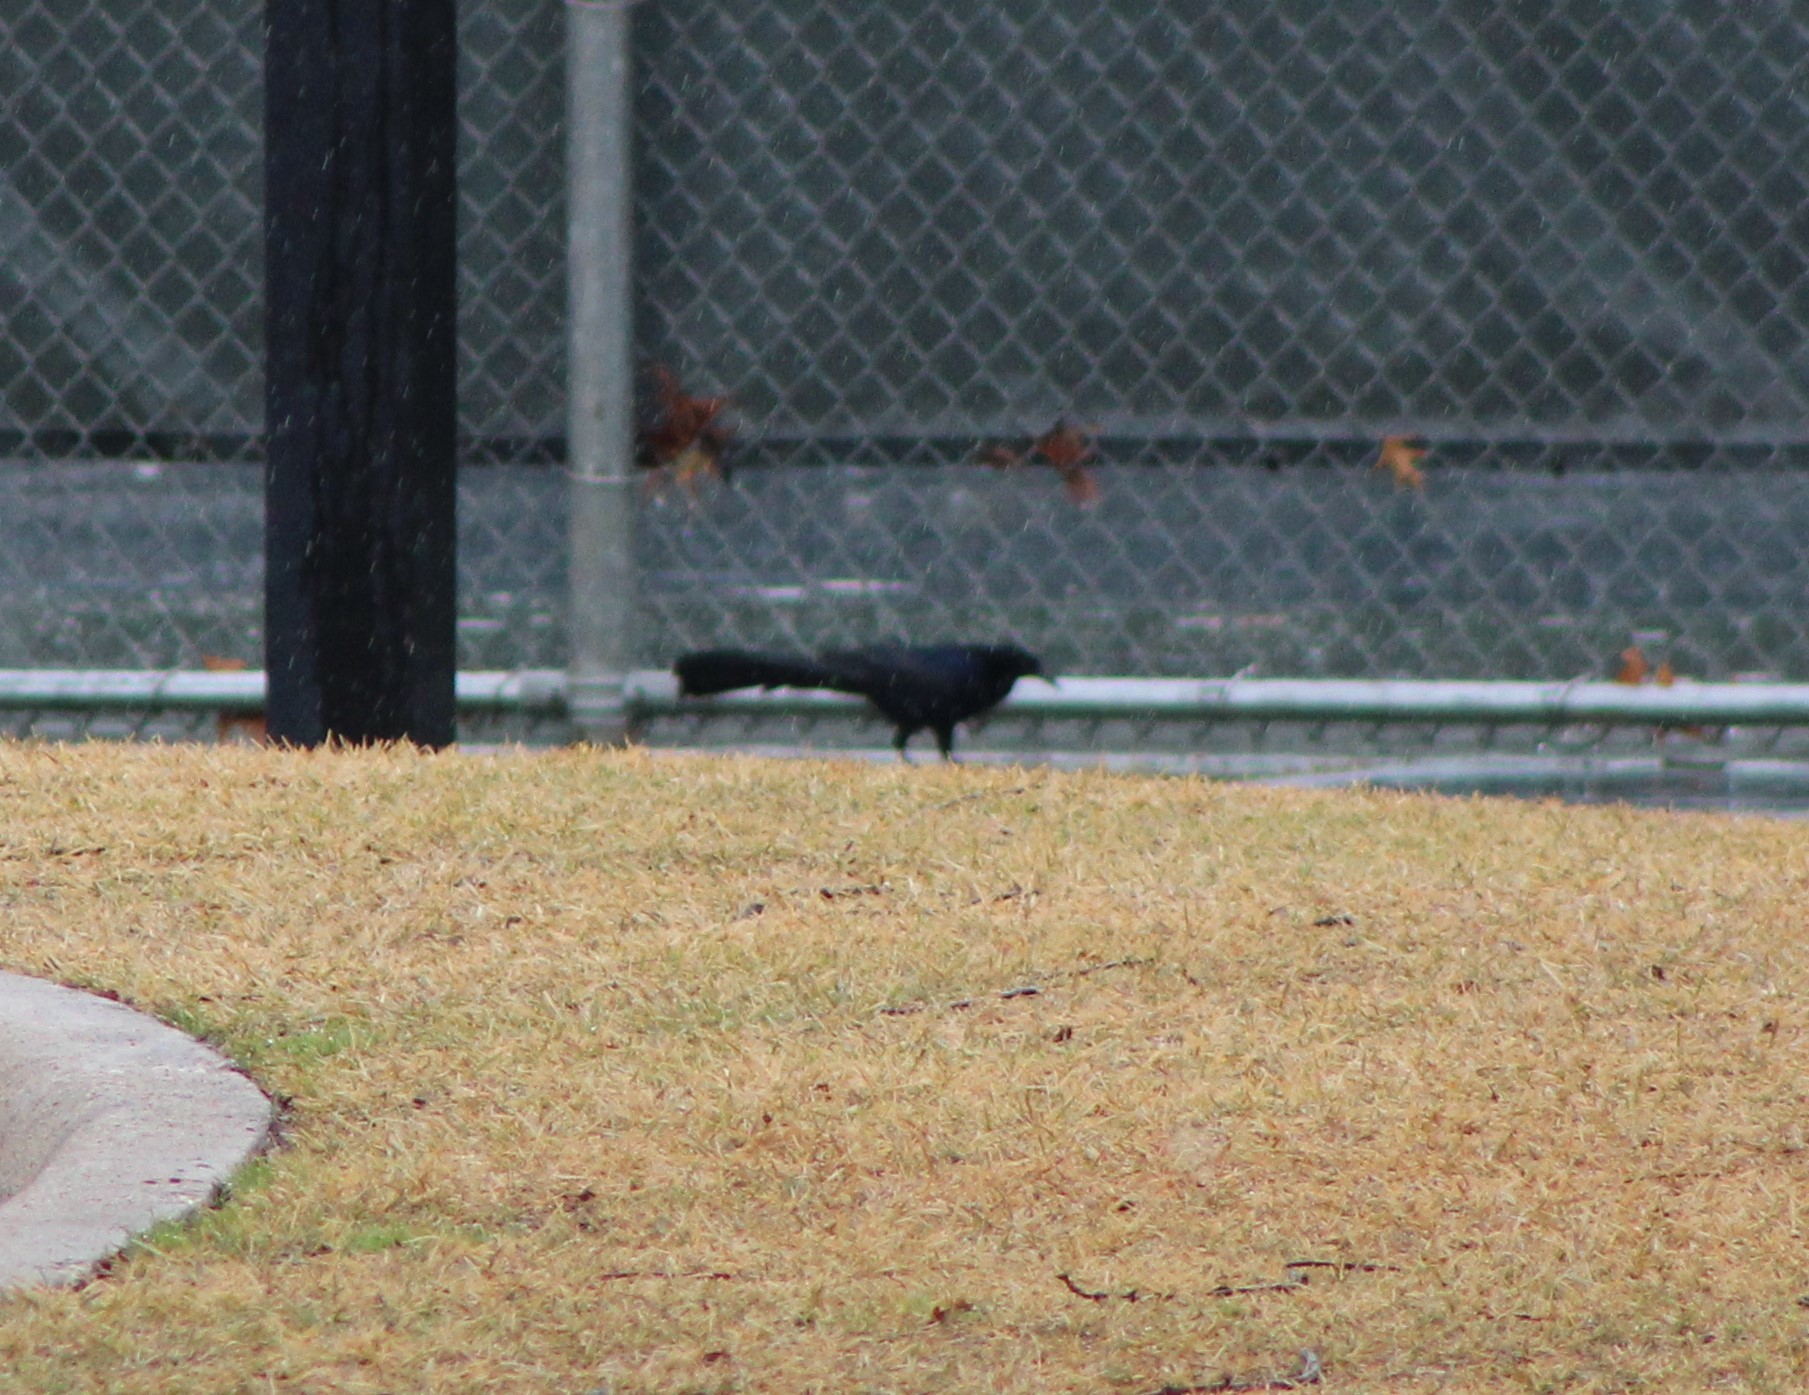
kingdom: Animalia
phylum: Chordata
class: Aves
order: Passeriformes
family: Icteridae
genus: Quiscalus
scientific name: Quiscalus mexicanus
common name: Great-tailed grackle
